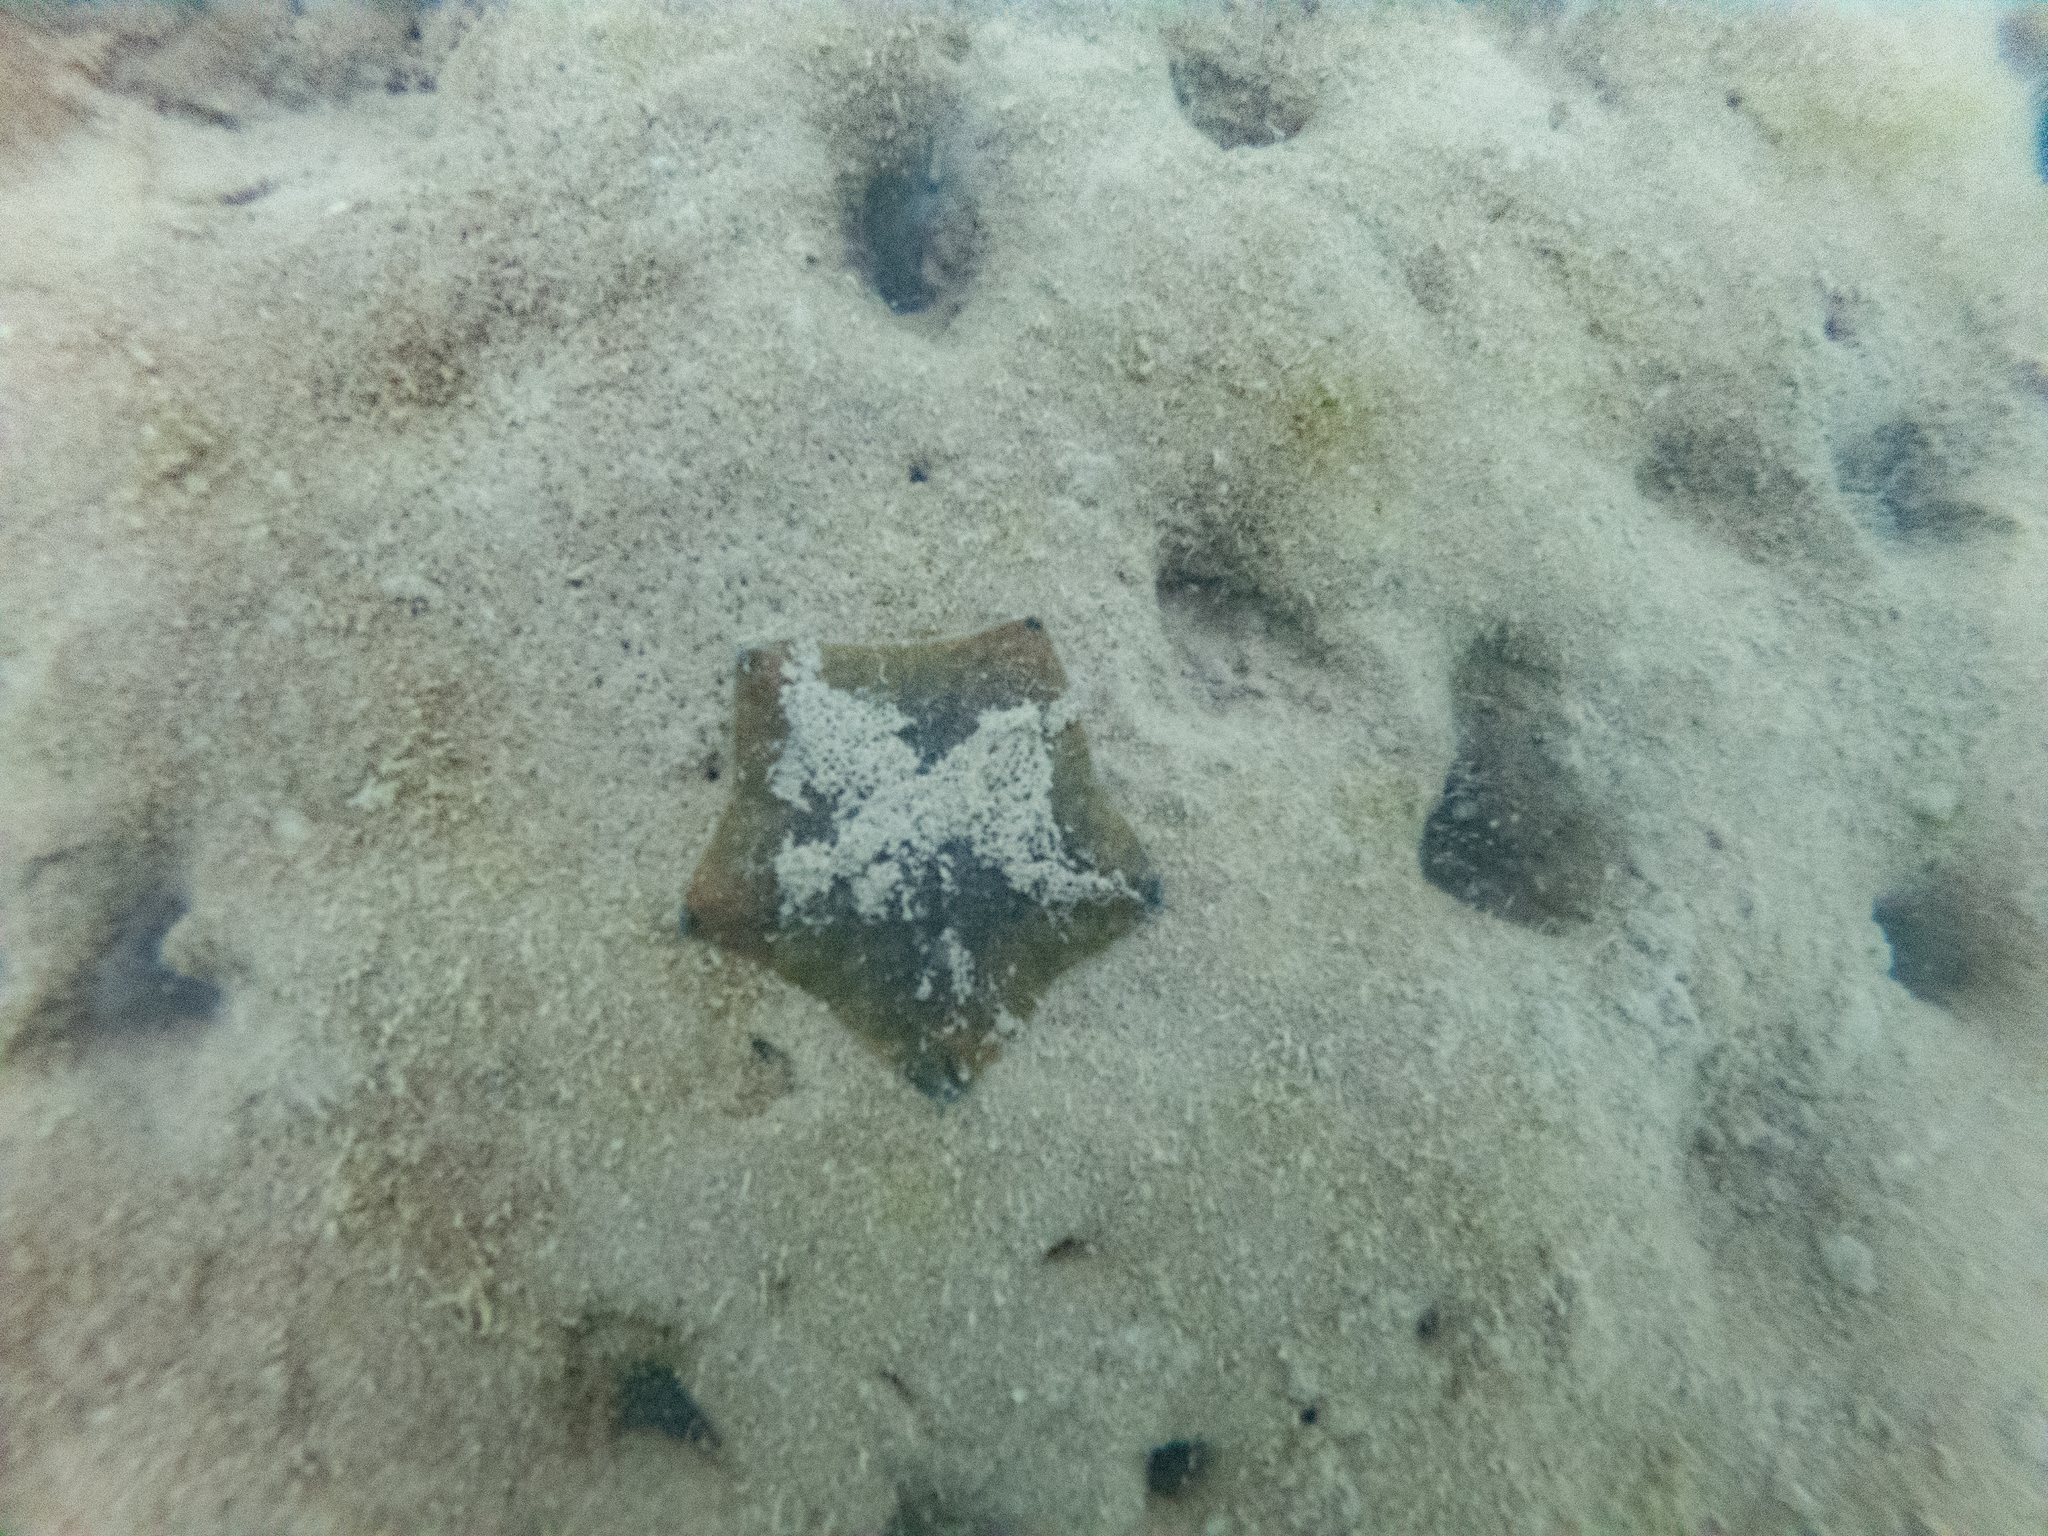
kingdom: Animalia
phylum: Echinodermata
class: Asteroidea
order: Valvatida
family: Asterinidae
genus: Patiriella
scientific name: Patiriella regularis
